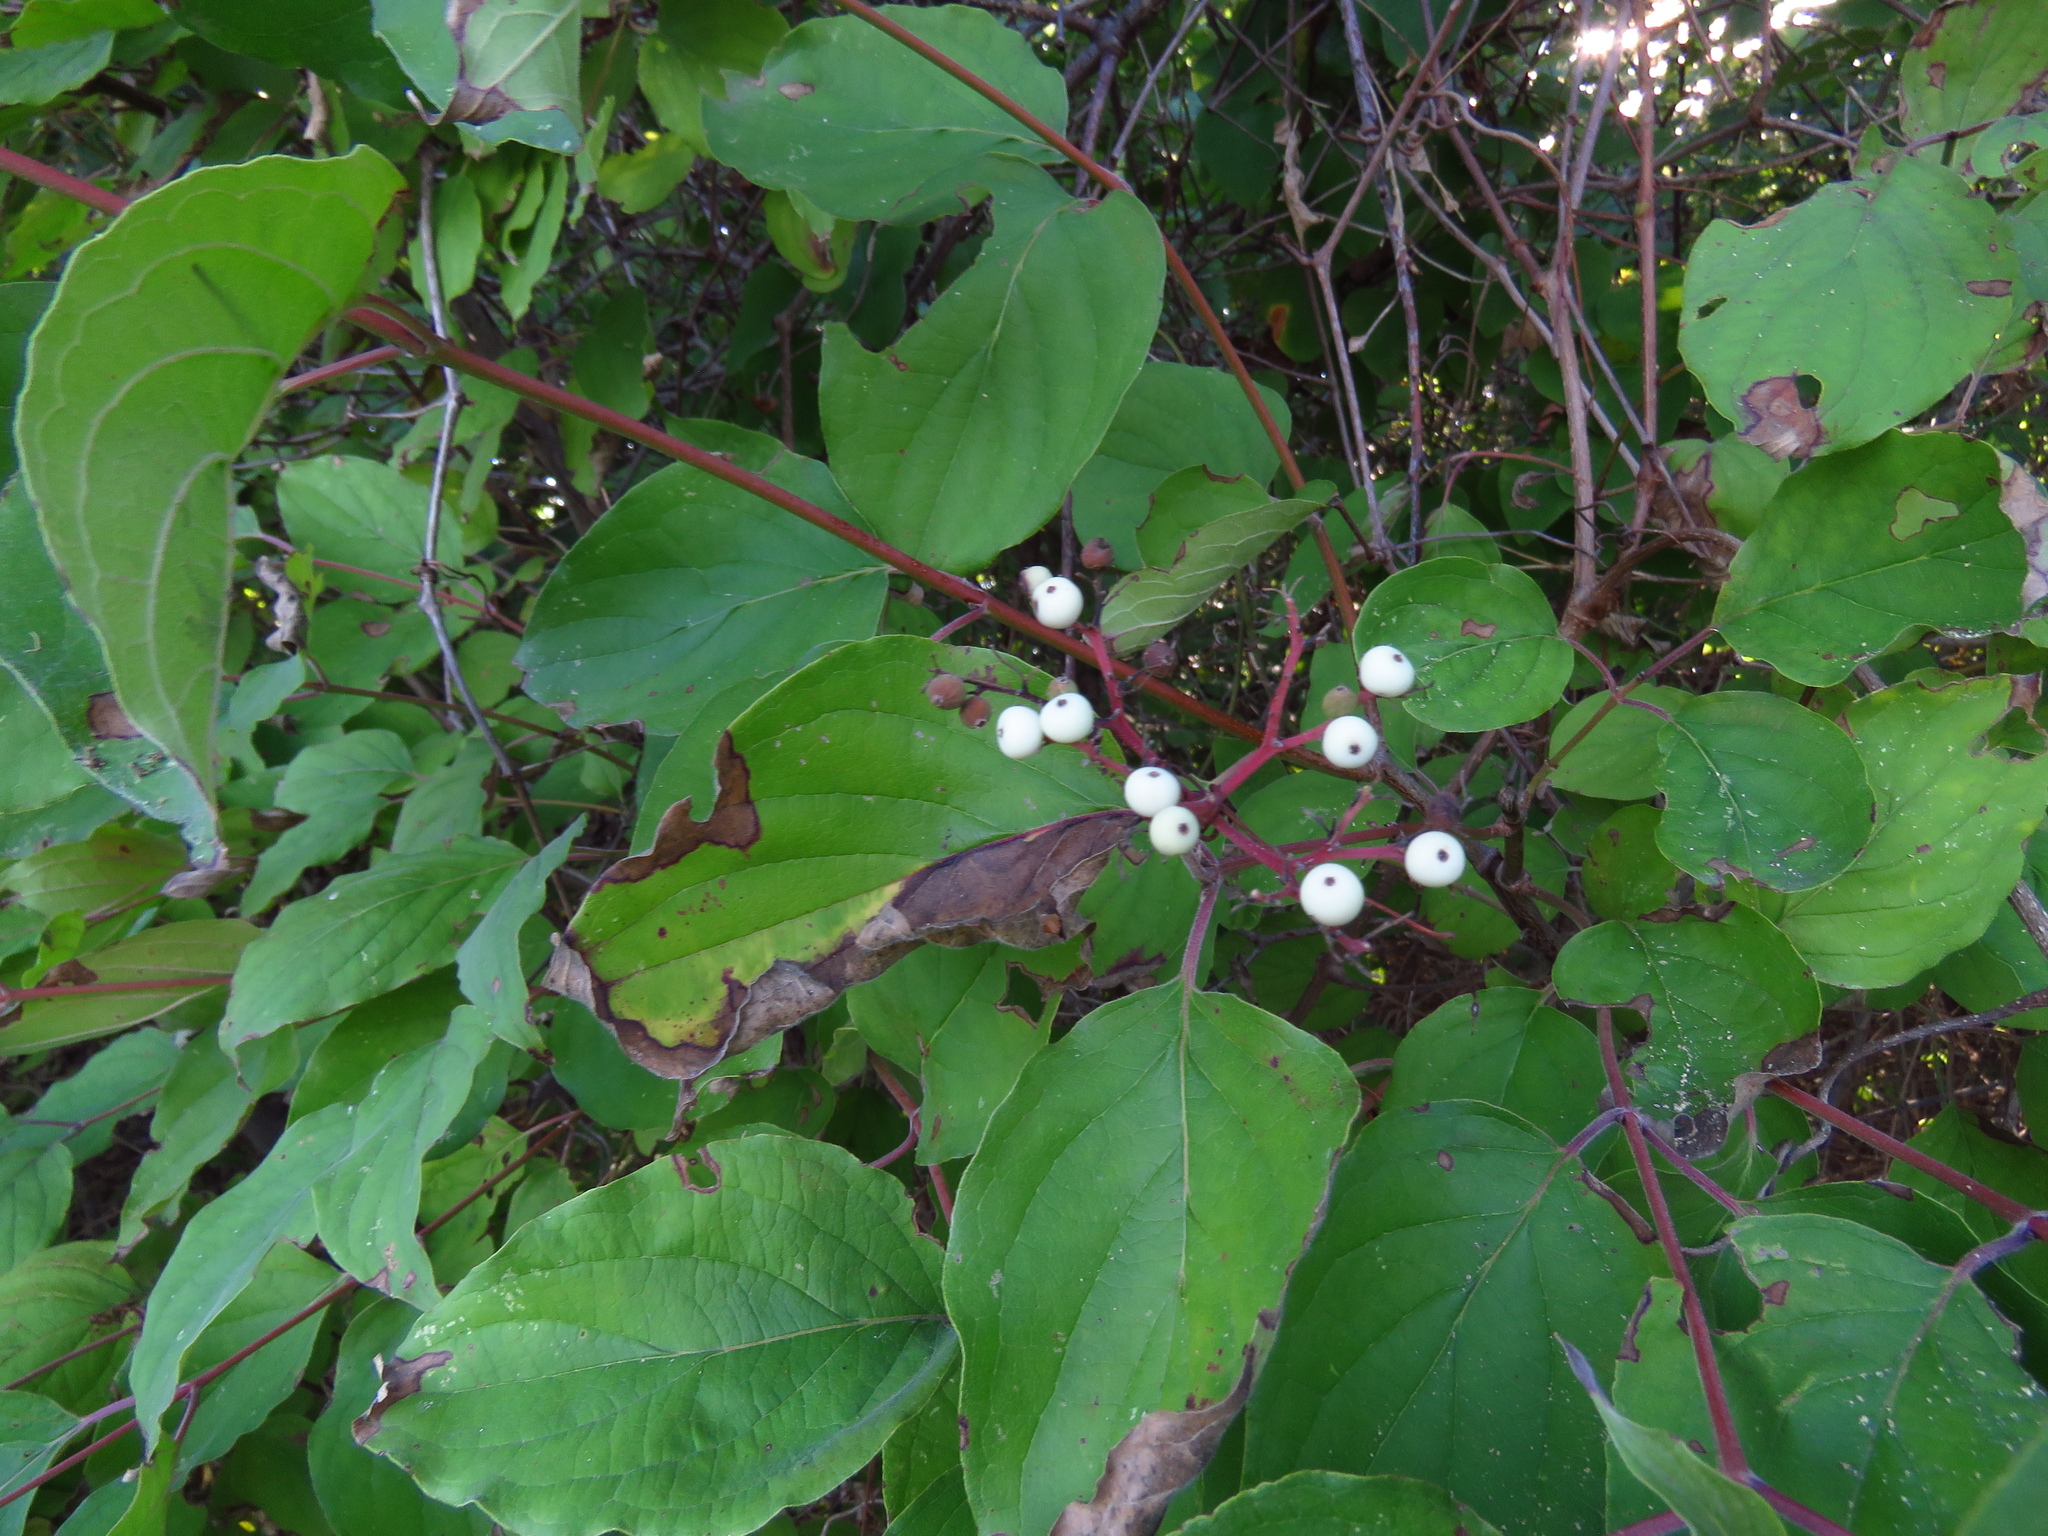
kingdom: Plantae
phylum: Tracheophyta
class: Magnoliopsida
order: Cornales
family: Cornaceae
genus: Cornus
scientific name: Cornus drummondii
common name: Rough-leaf dogwood
